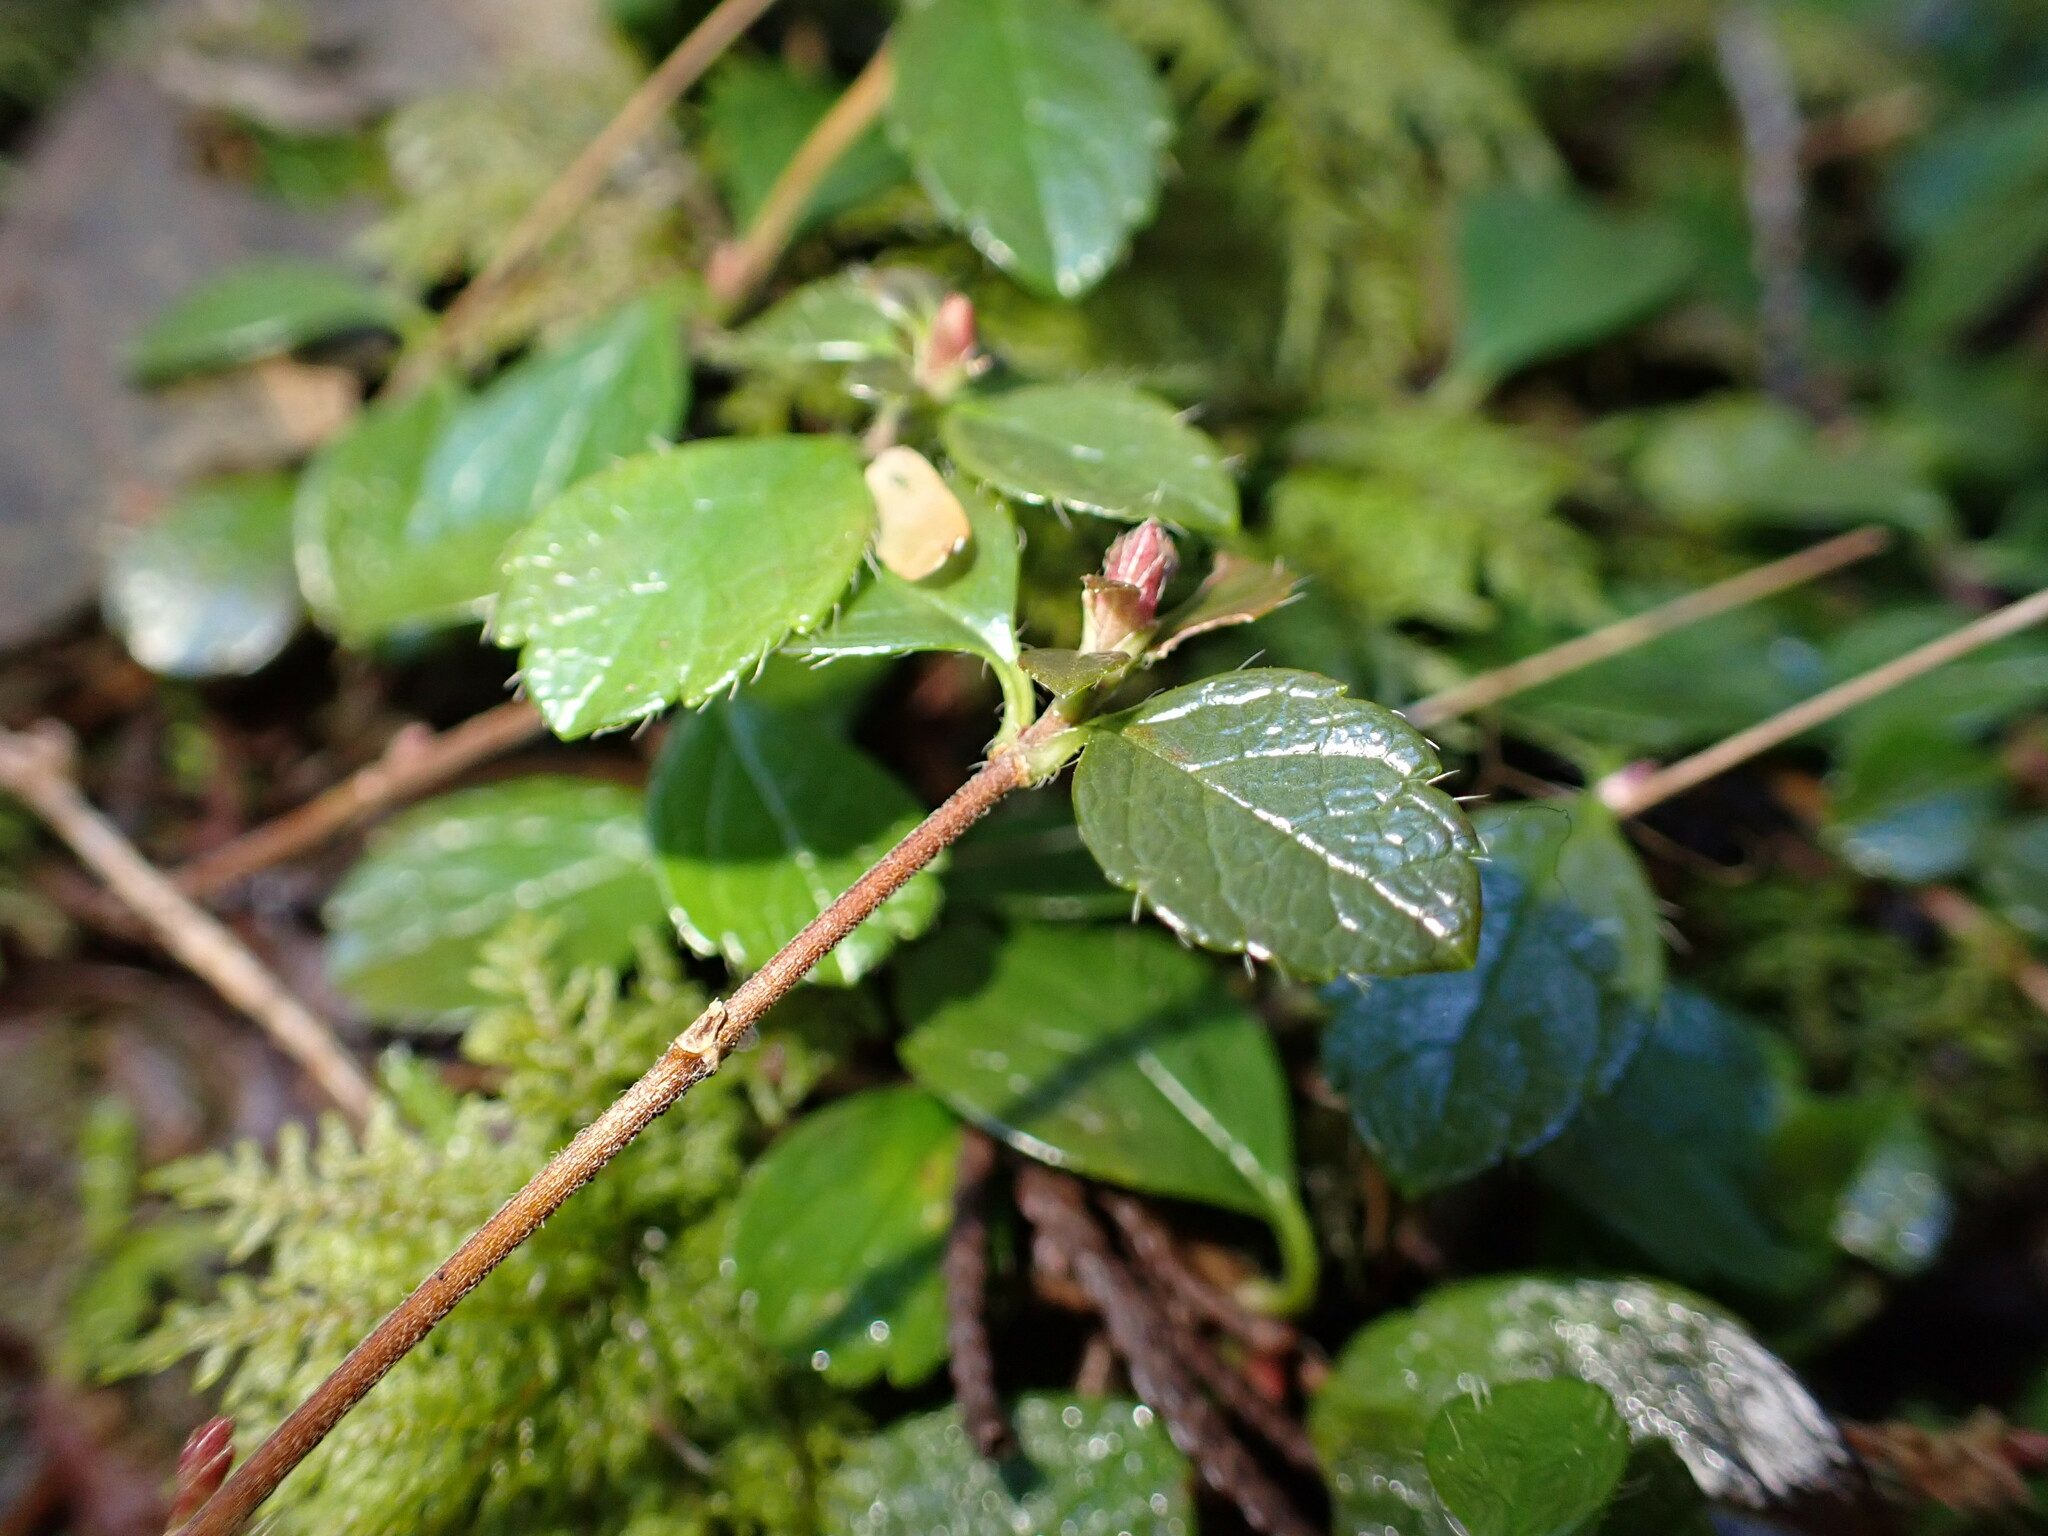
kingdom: Plantae
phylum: Tracheophyta
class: Magnoliopsida
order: Dipsacales
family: Caprifoliaceae
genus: Linnaea
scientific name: Linnaea borealis
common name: Twinflower
